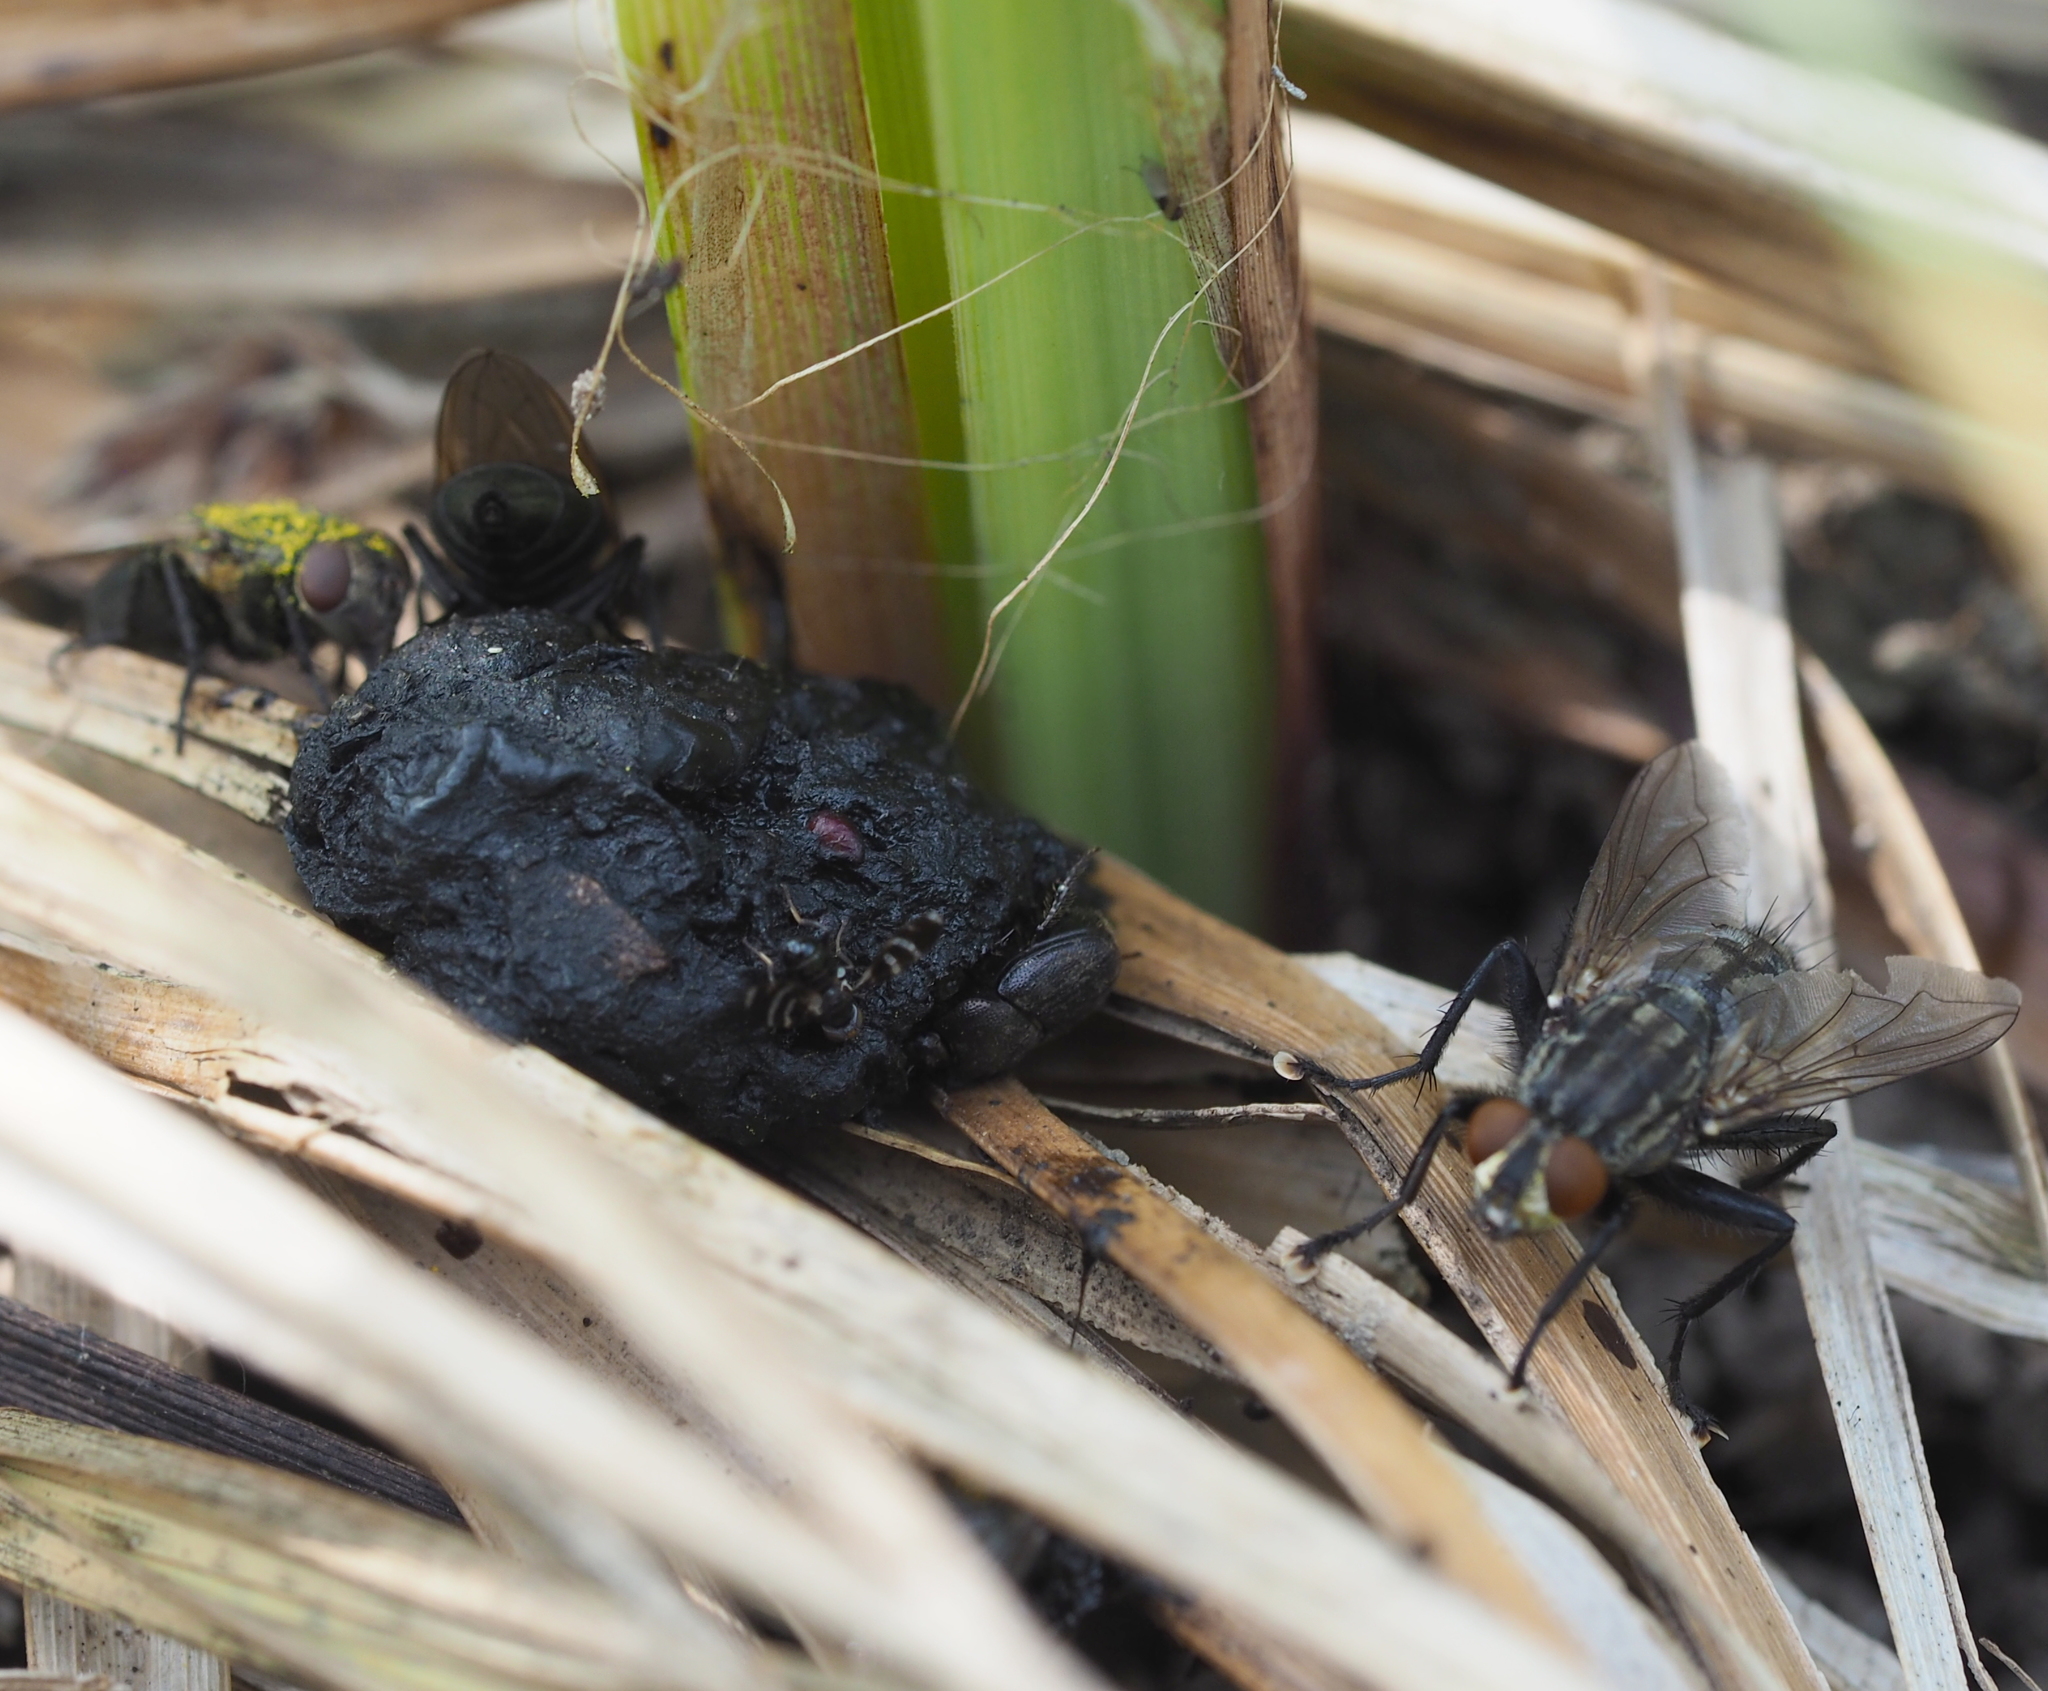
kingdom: Animalia
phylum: Arthropoda
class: Insecta
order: Diptera
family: Ulidiidae
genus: Herina
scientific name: Herina frondescentiae
